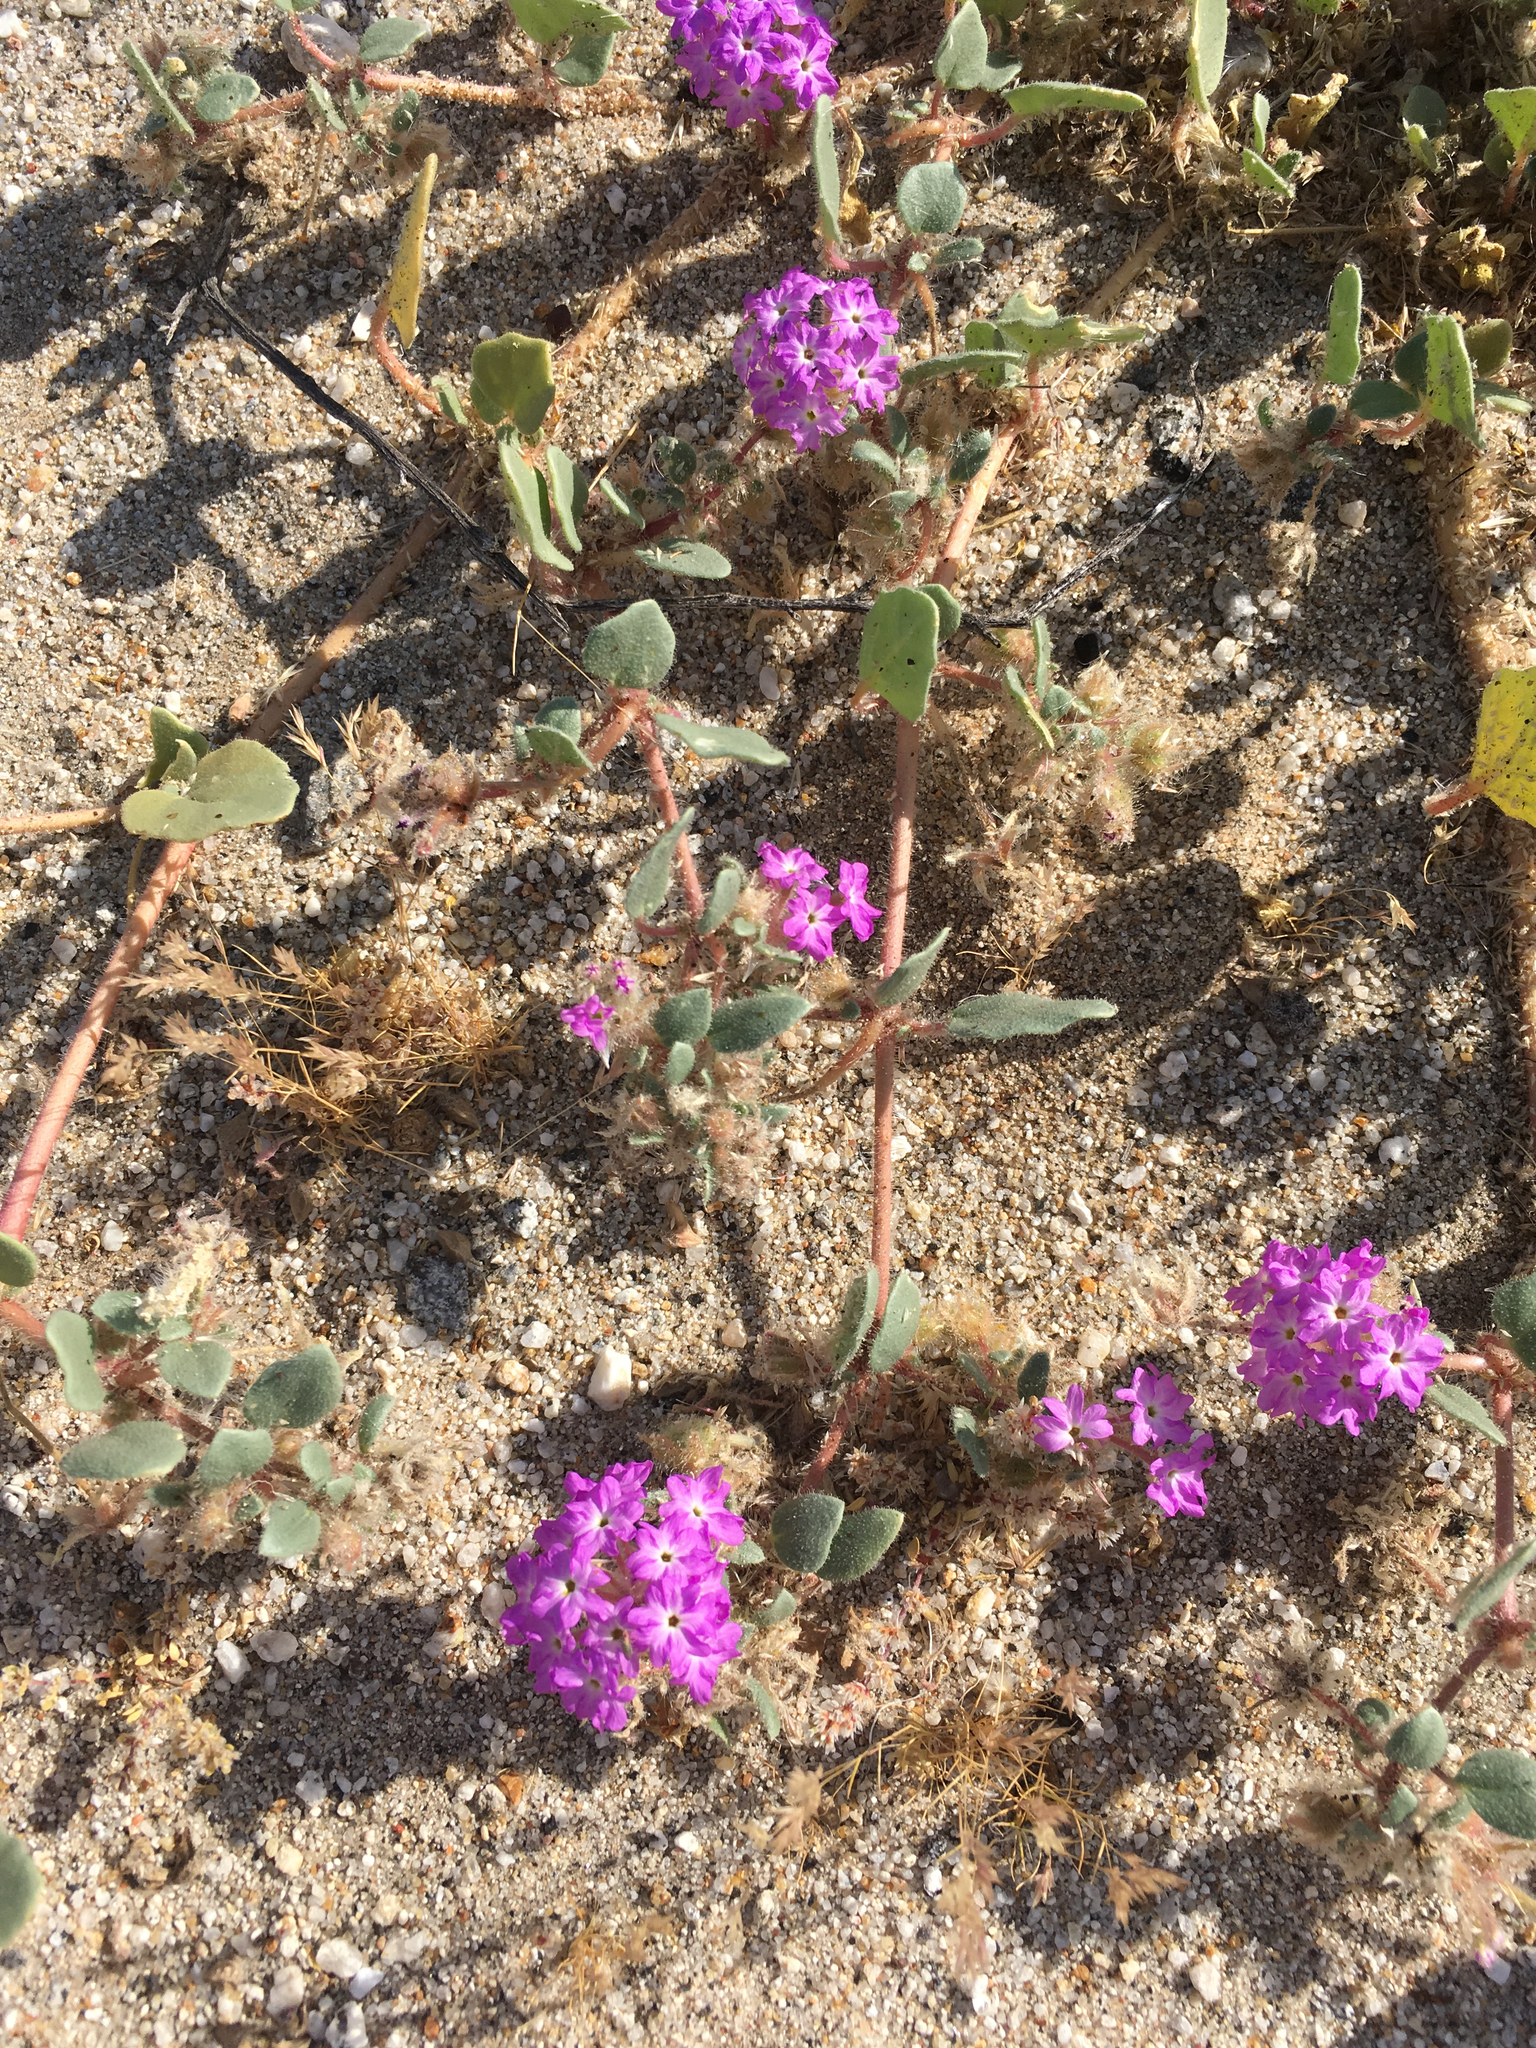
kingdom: Plantae
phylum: Tracheophyta
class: Magnoliopsida
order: Caryophyllales
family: Nyctaginaceae
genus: Abronia
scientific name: Abronia villosa
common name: Desert sand-verbena
